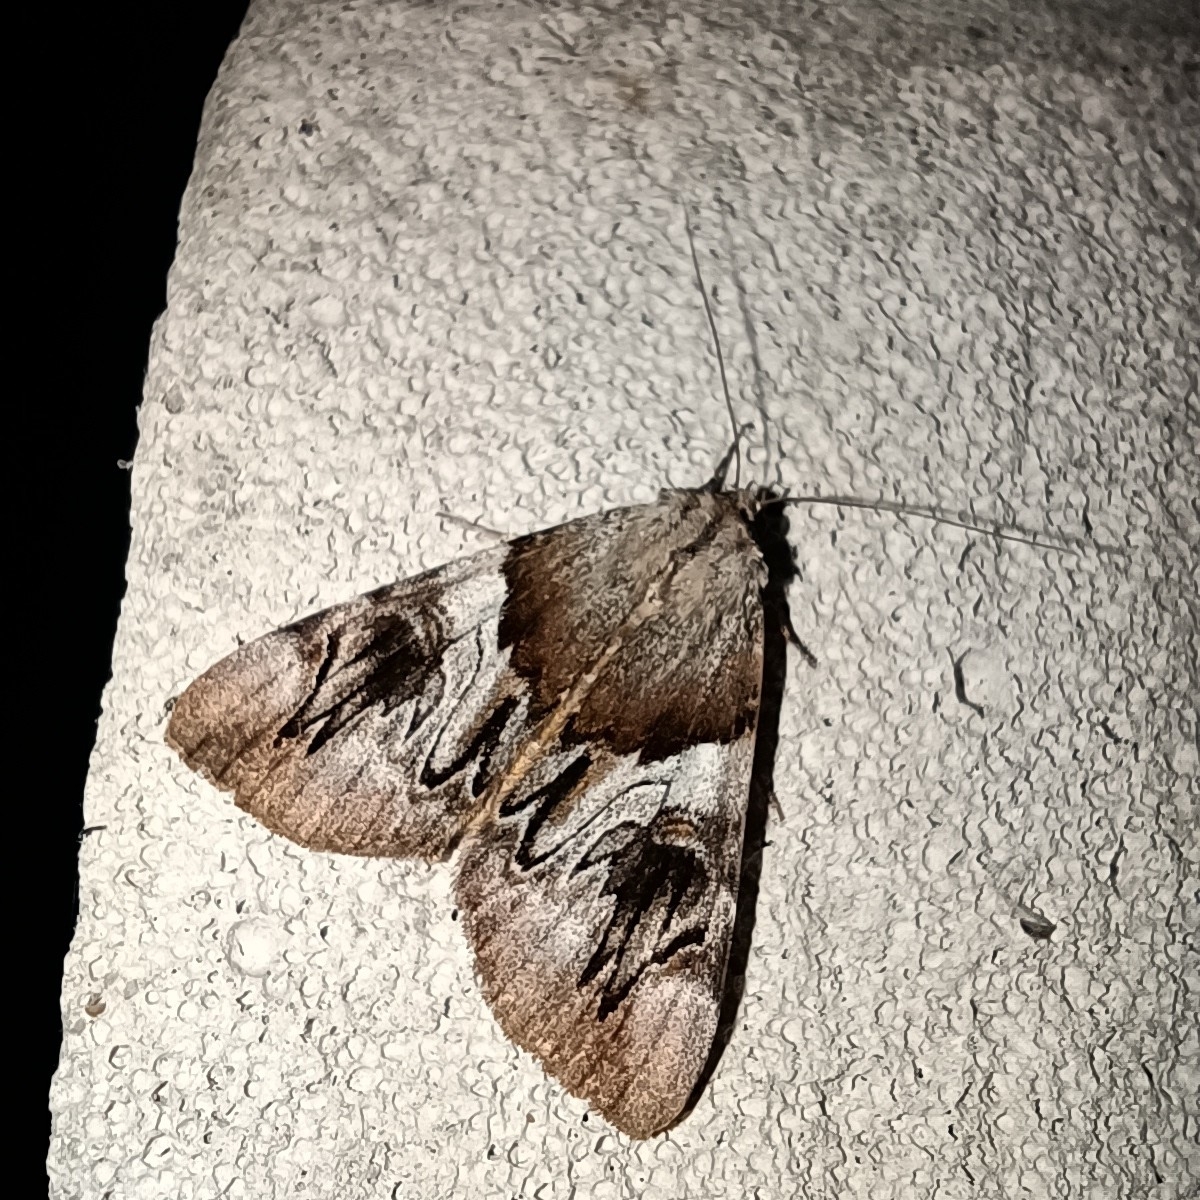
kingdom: Animalia
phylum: Arthropoda
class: Insecta
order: Lepidoptera
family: Erebidae
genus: Catocala
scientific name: Catocala fulminea
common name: Yellow bands underwing
